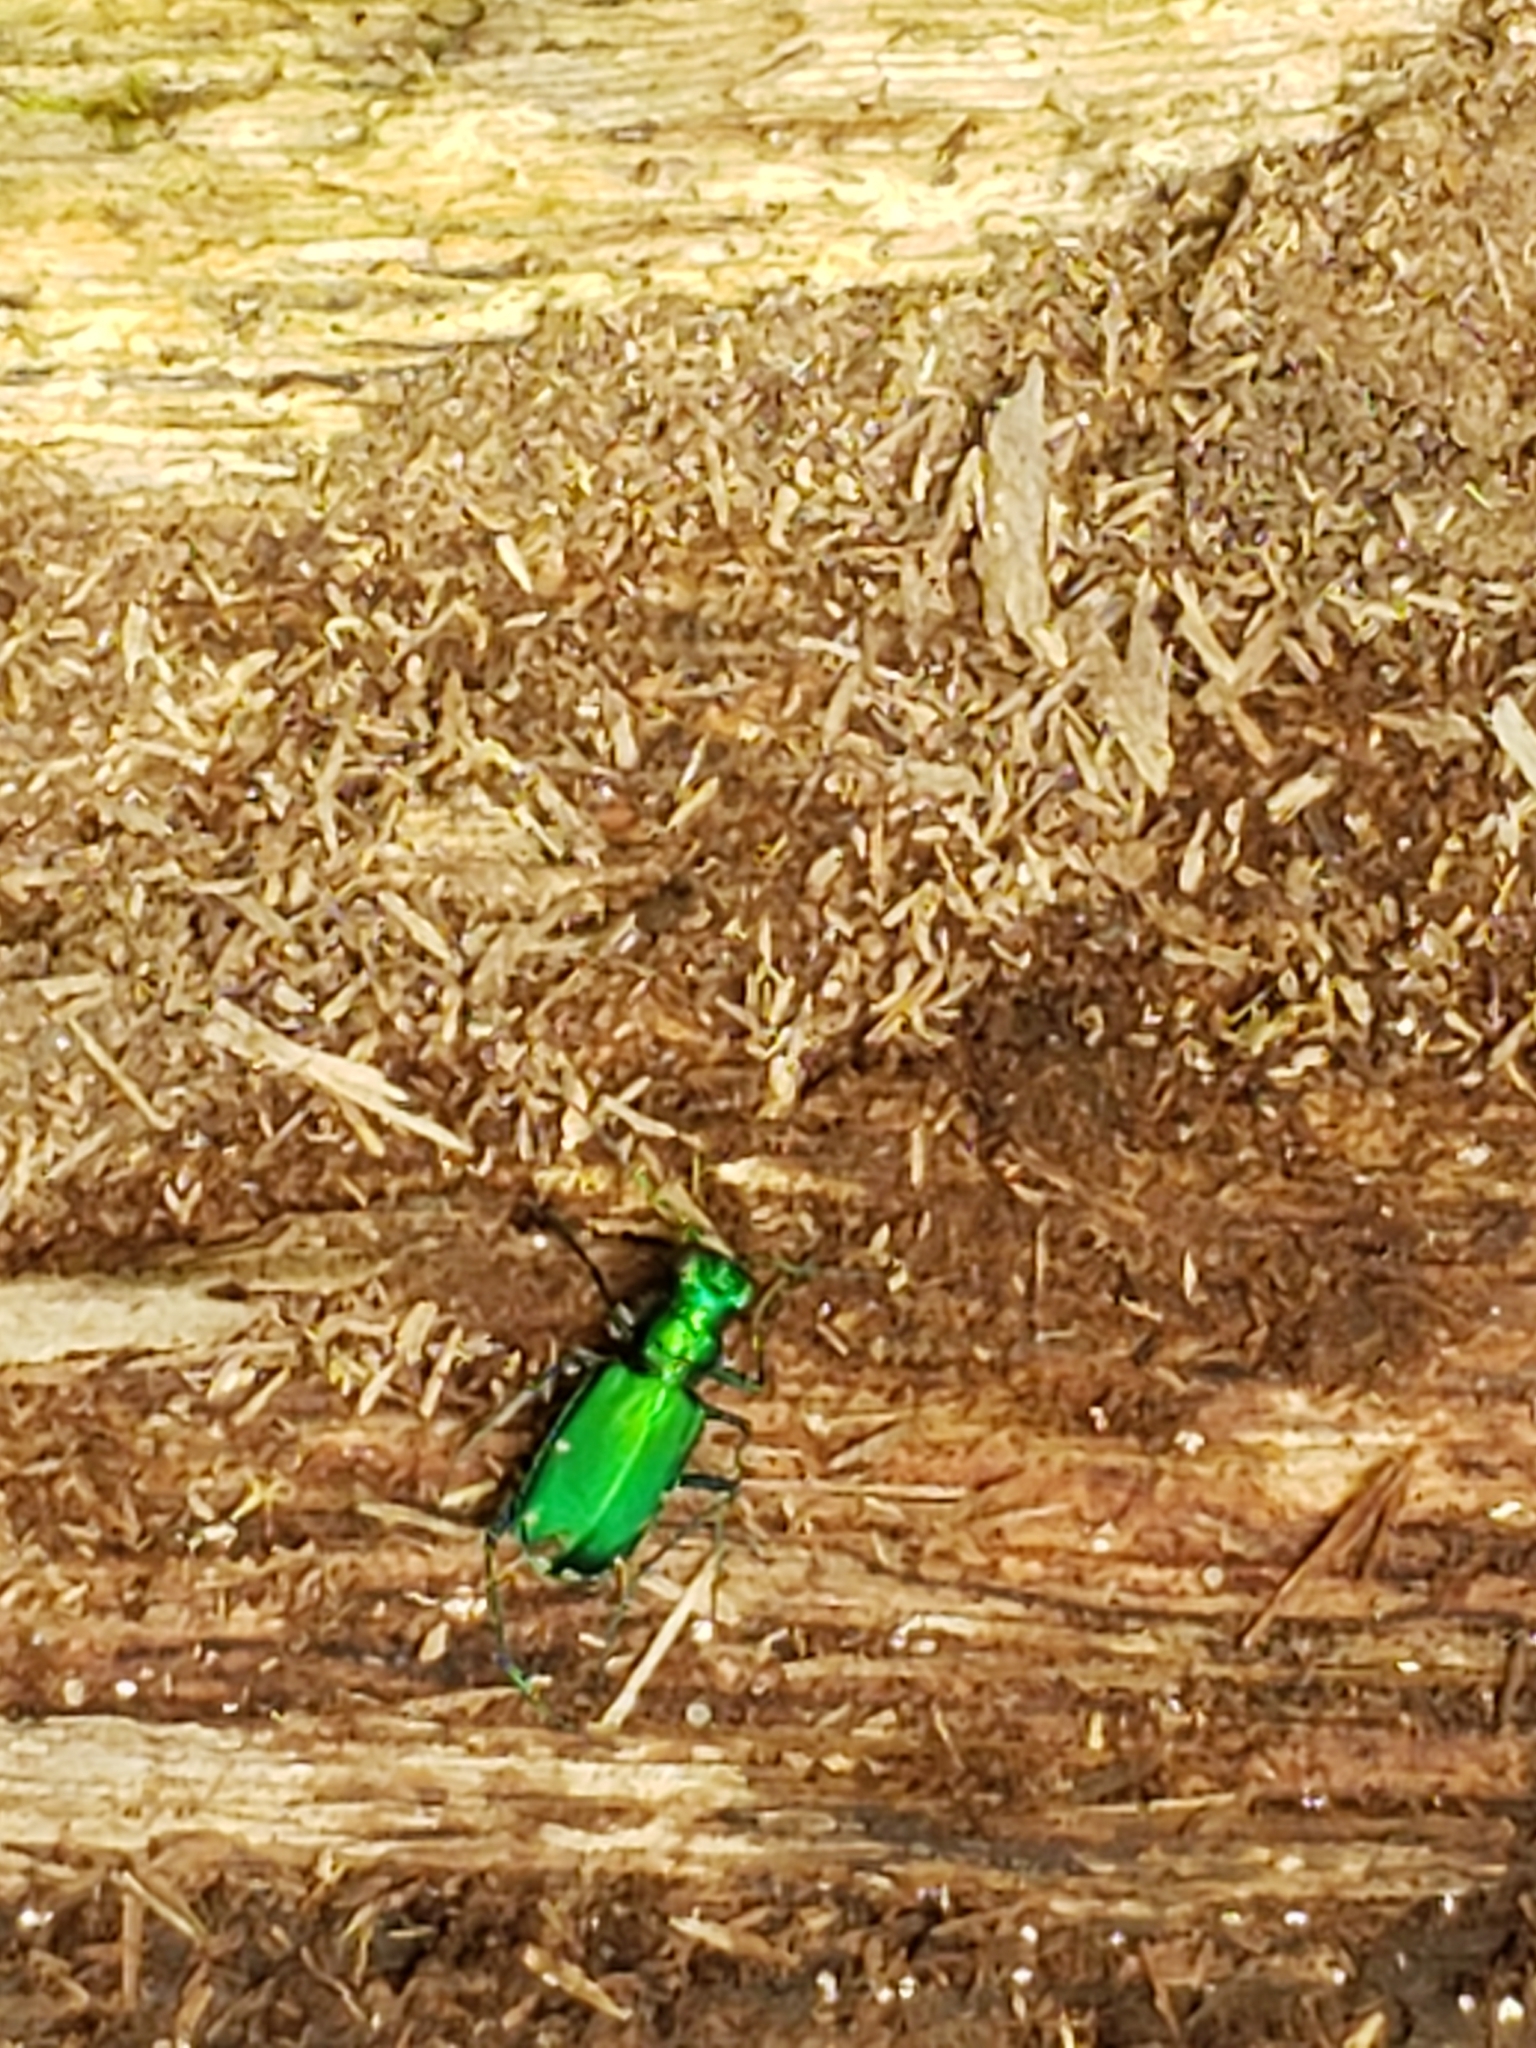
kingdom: Animalia
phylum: Arthropoda
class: Insecta
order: Coleoptera
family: Carabidae
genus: Cicindela
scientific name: Cicindela sexguttata
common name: Six-spotted tiger beetle
